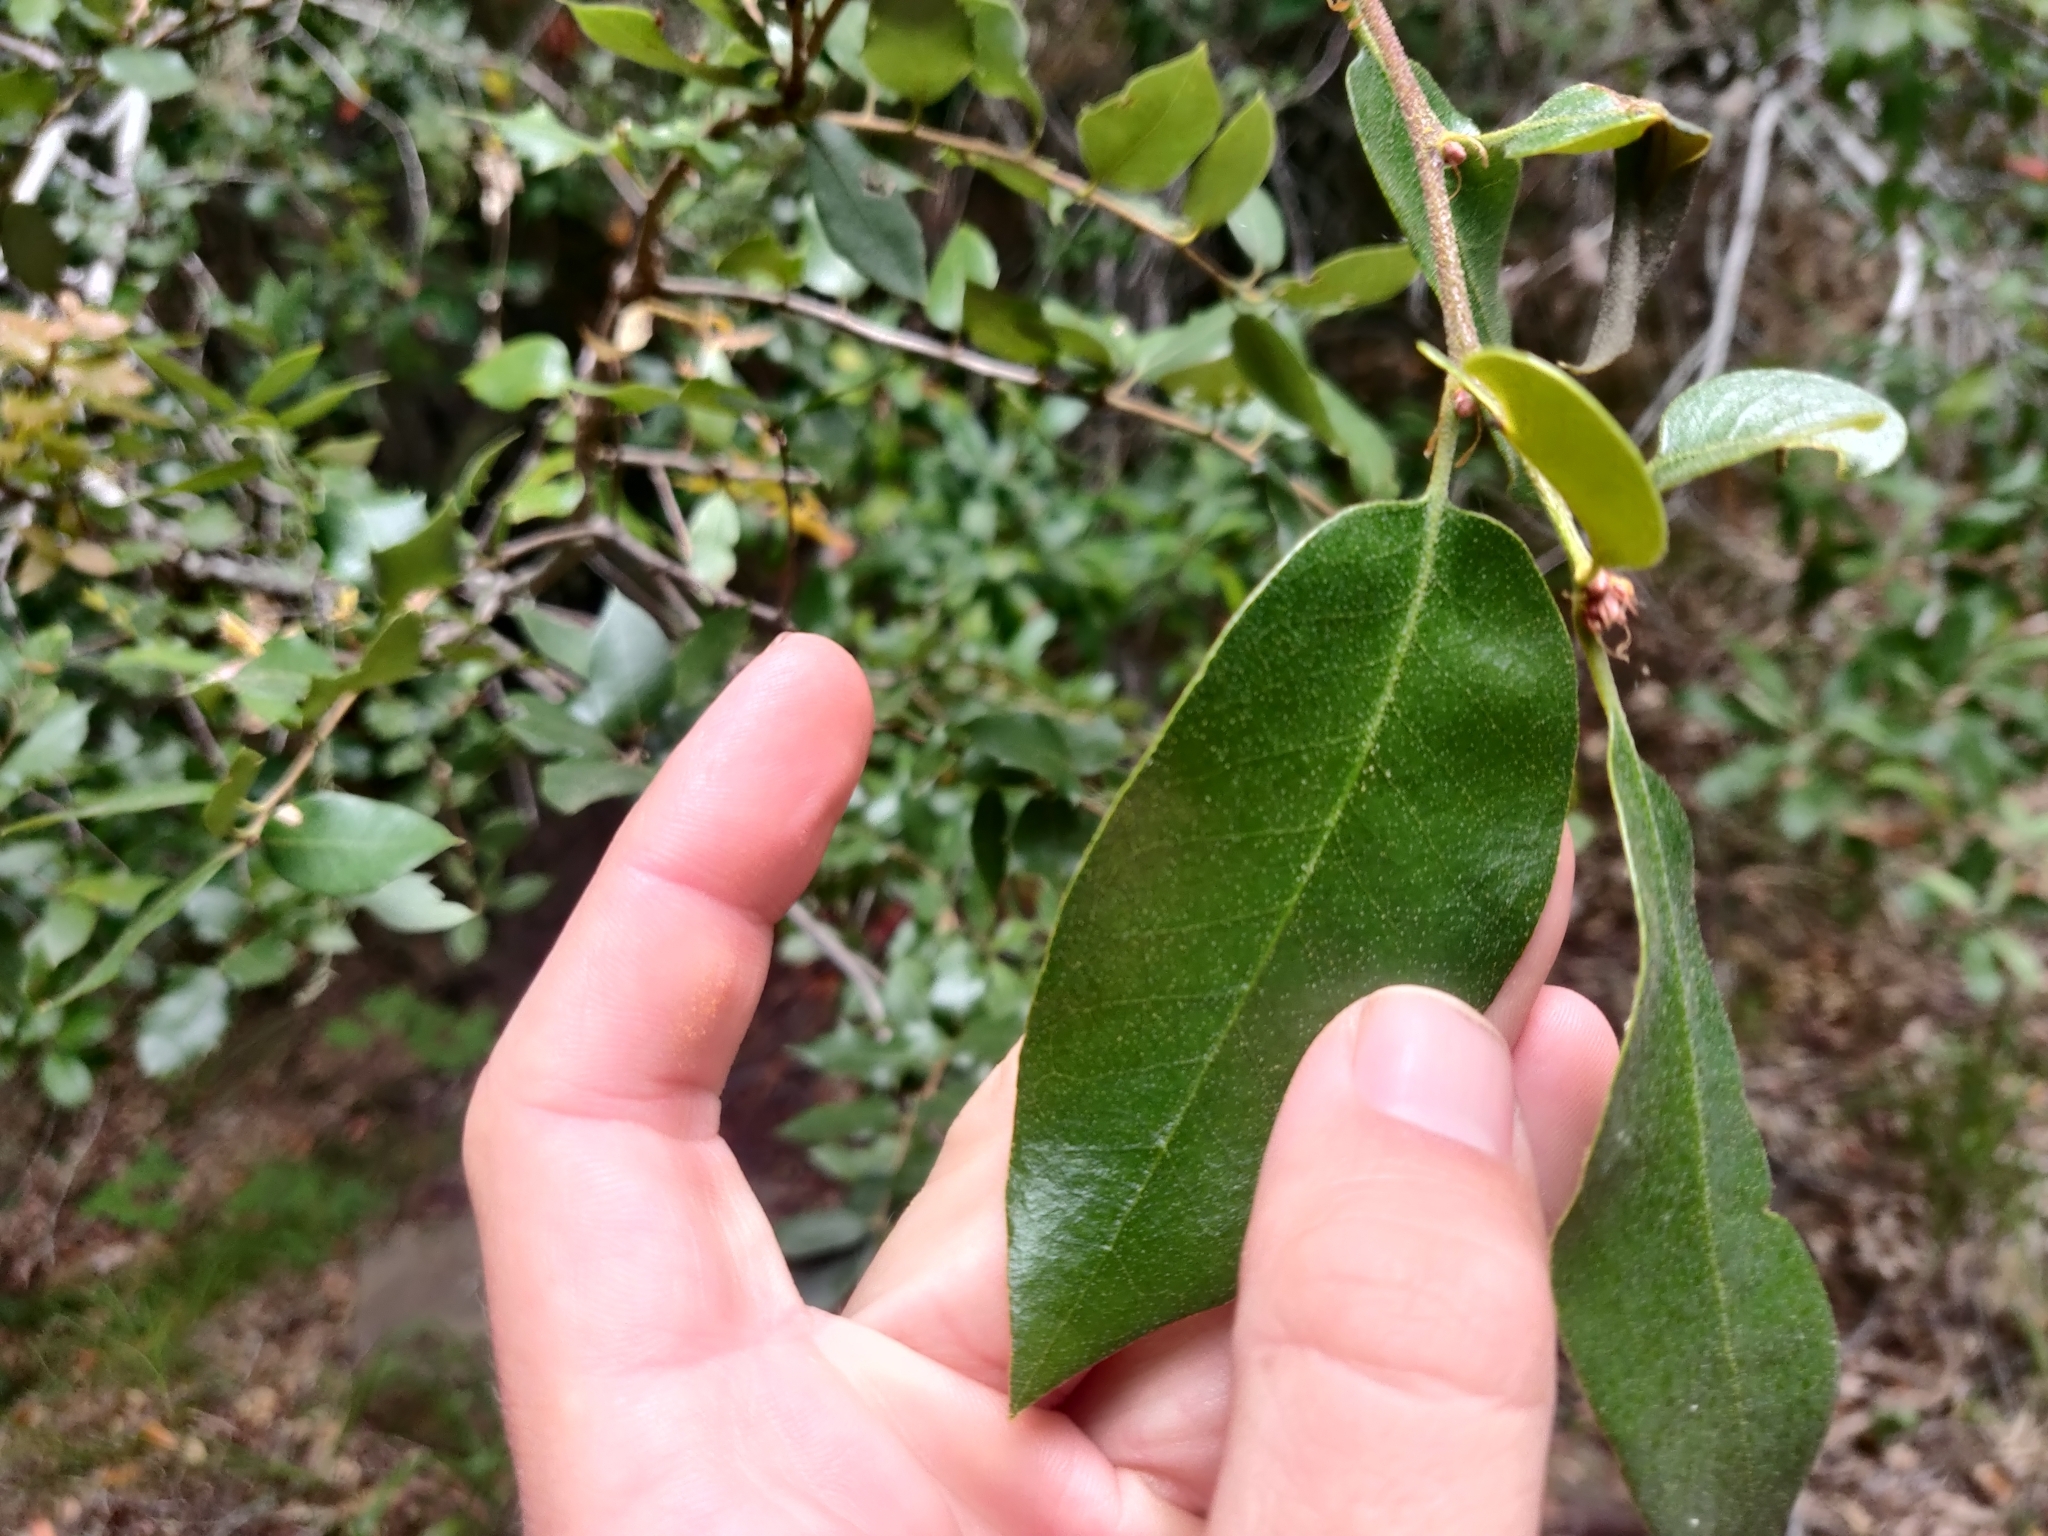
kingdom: Plantae
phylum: Tracheophyta
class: Magnoliopsida
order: Fagales
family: Fagaceae
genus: Quercus
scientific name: Quercus chrysolepis
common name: Canyon live oak
